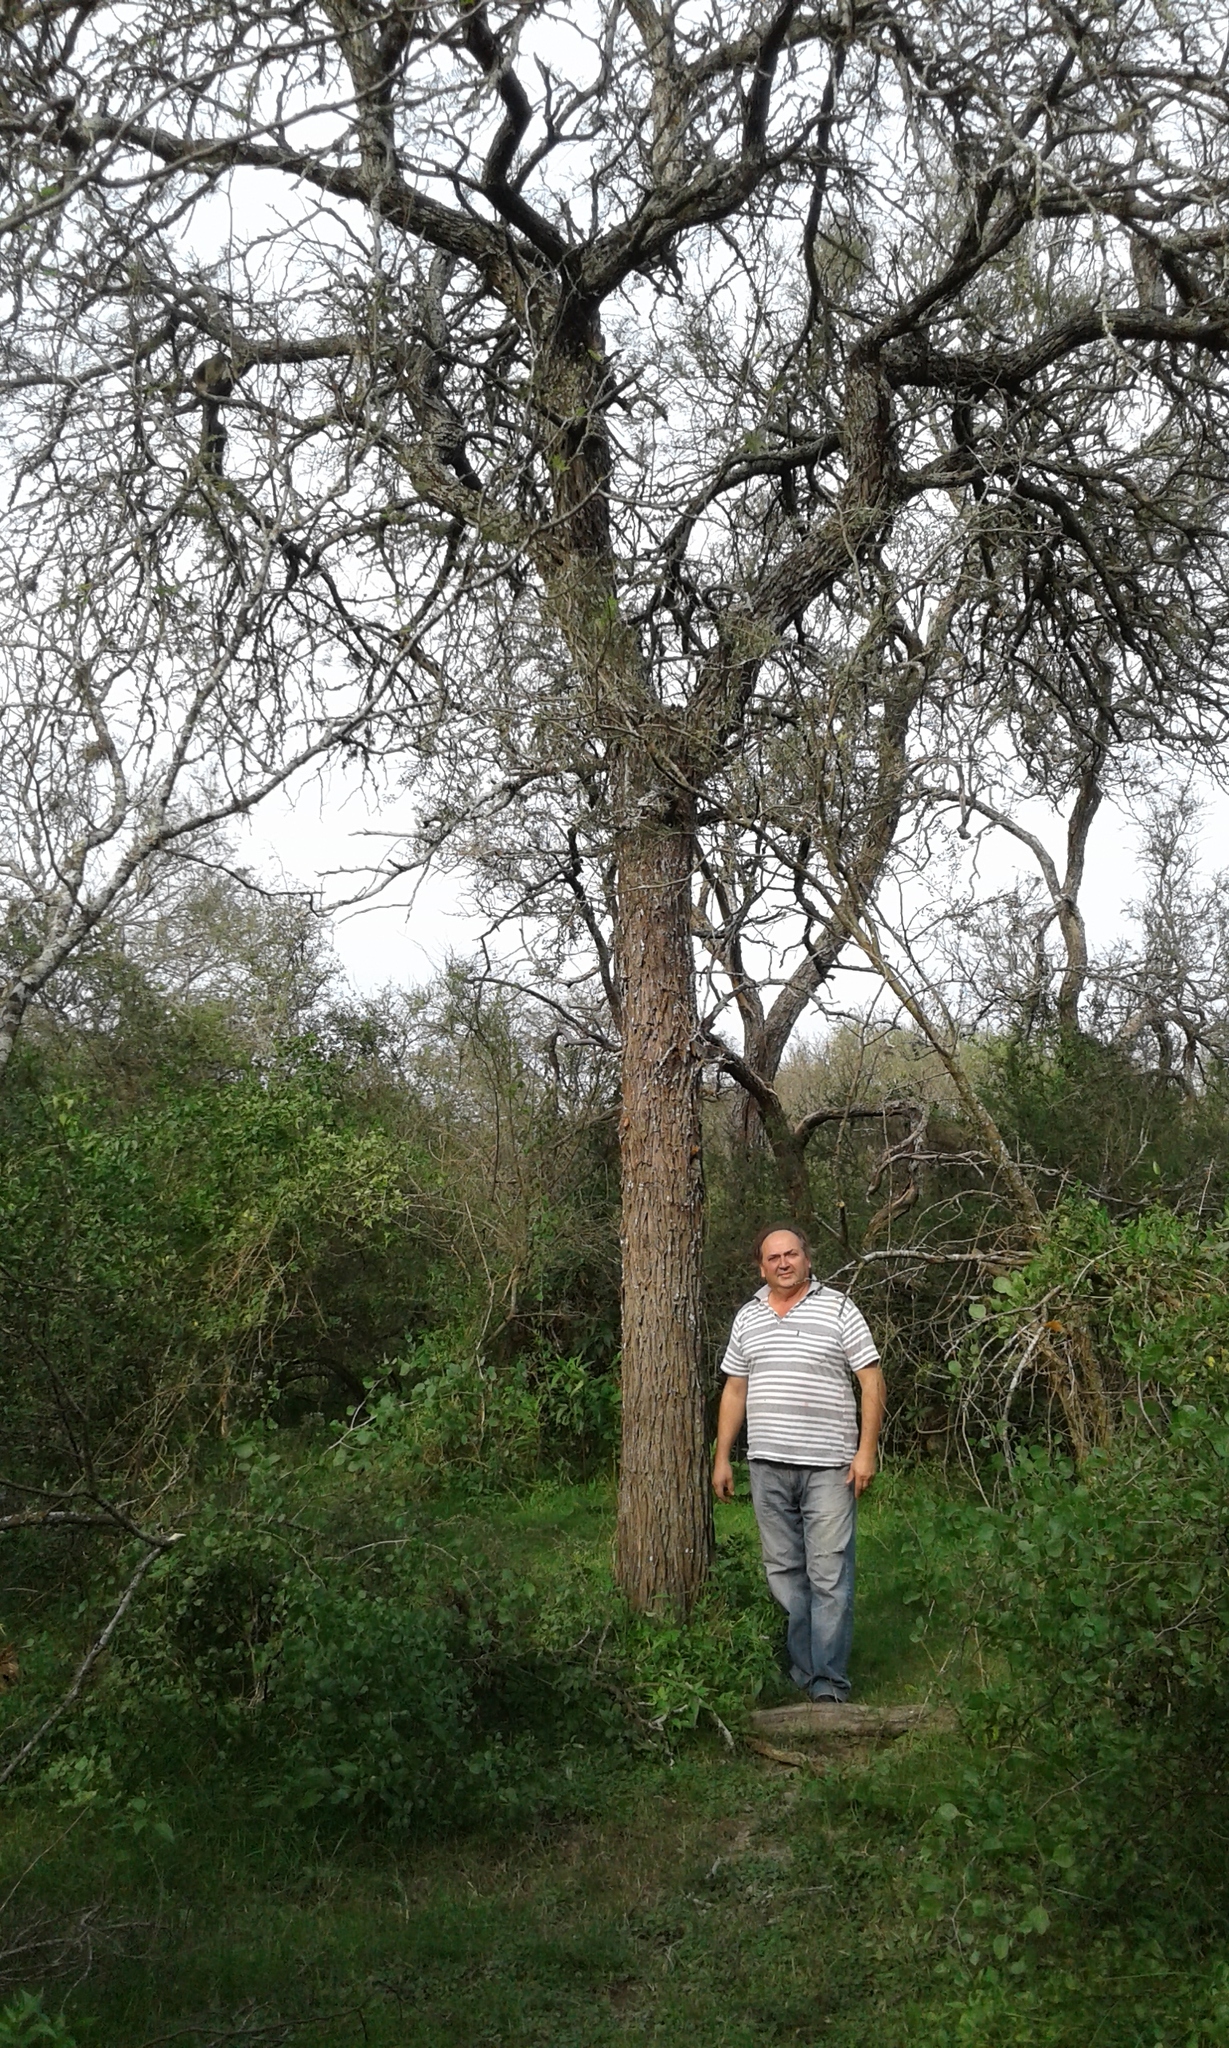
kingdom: Plantae
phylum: Tracheophyta
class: Magnoliopsida
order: Fabales
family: Fabaceae
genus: Prosopis
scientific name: Prosopis alba
